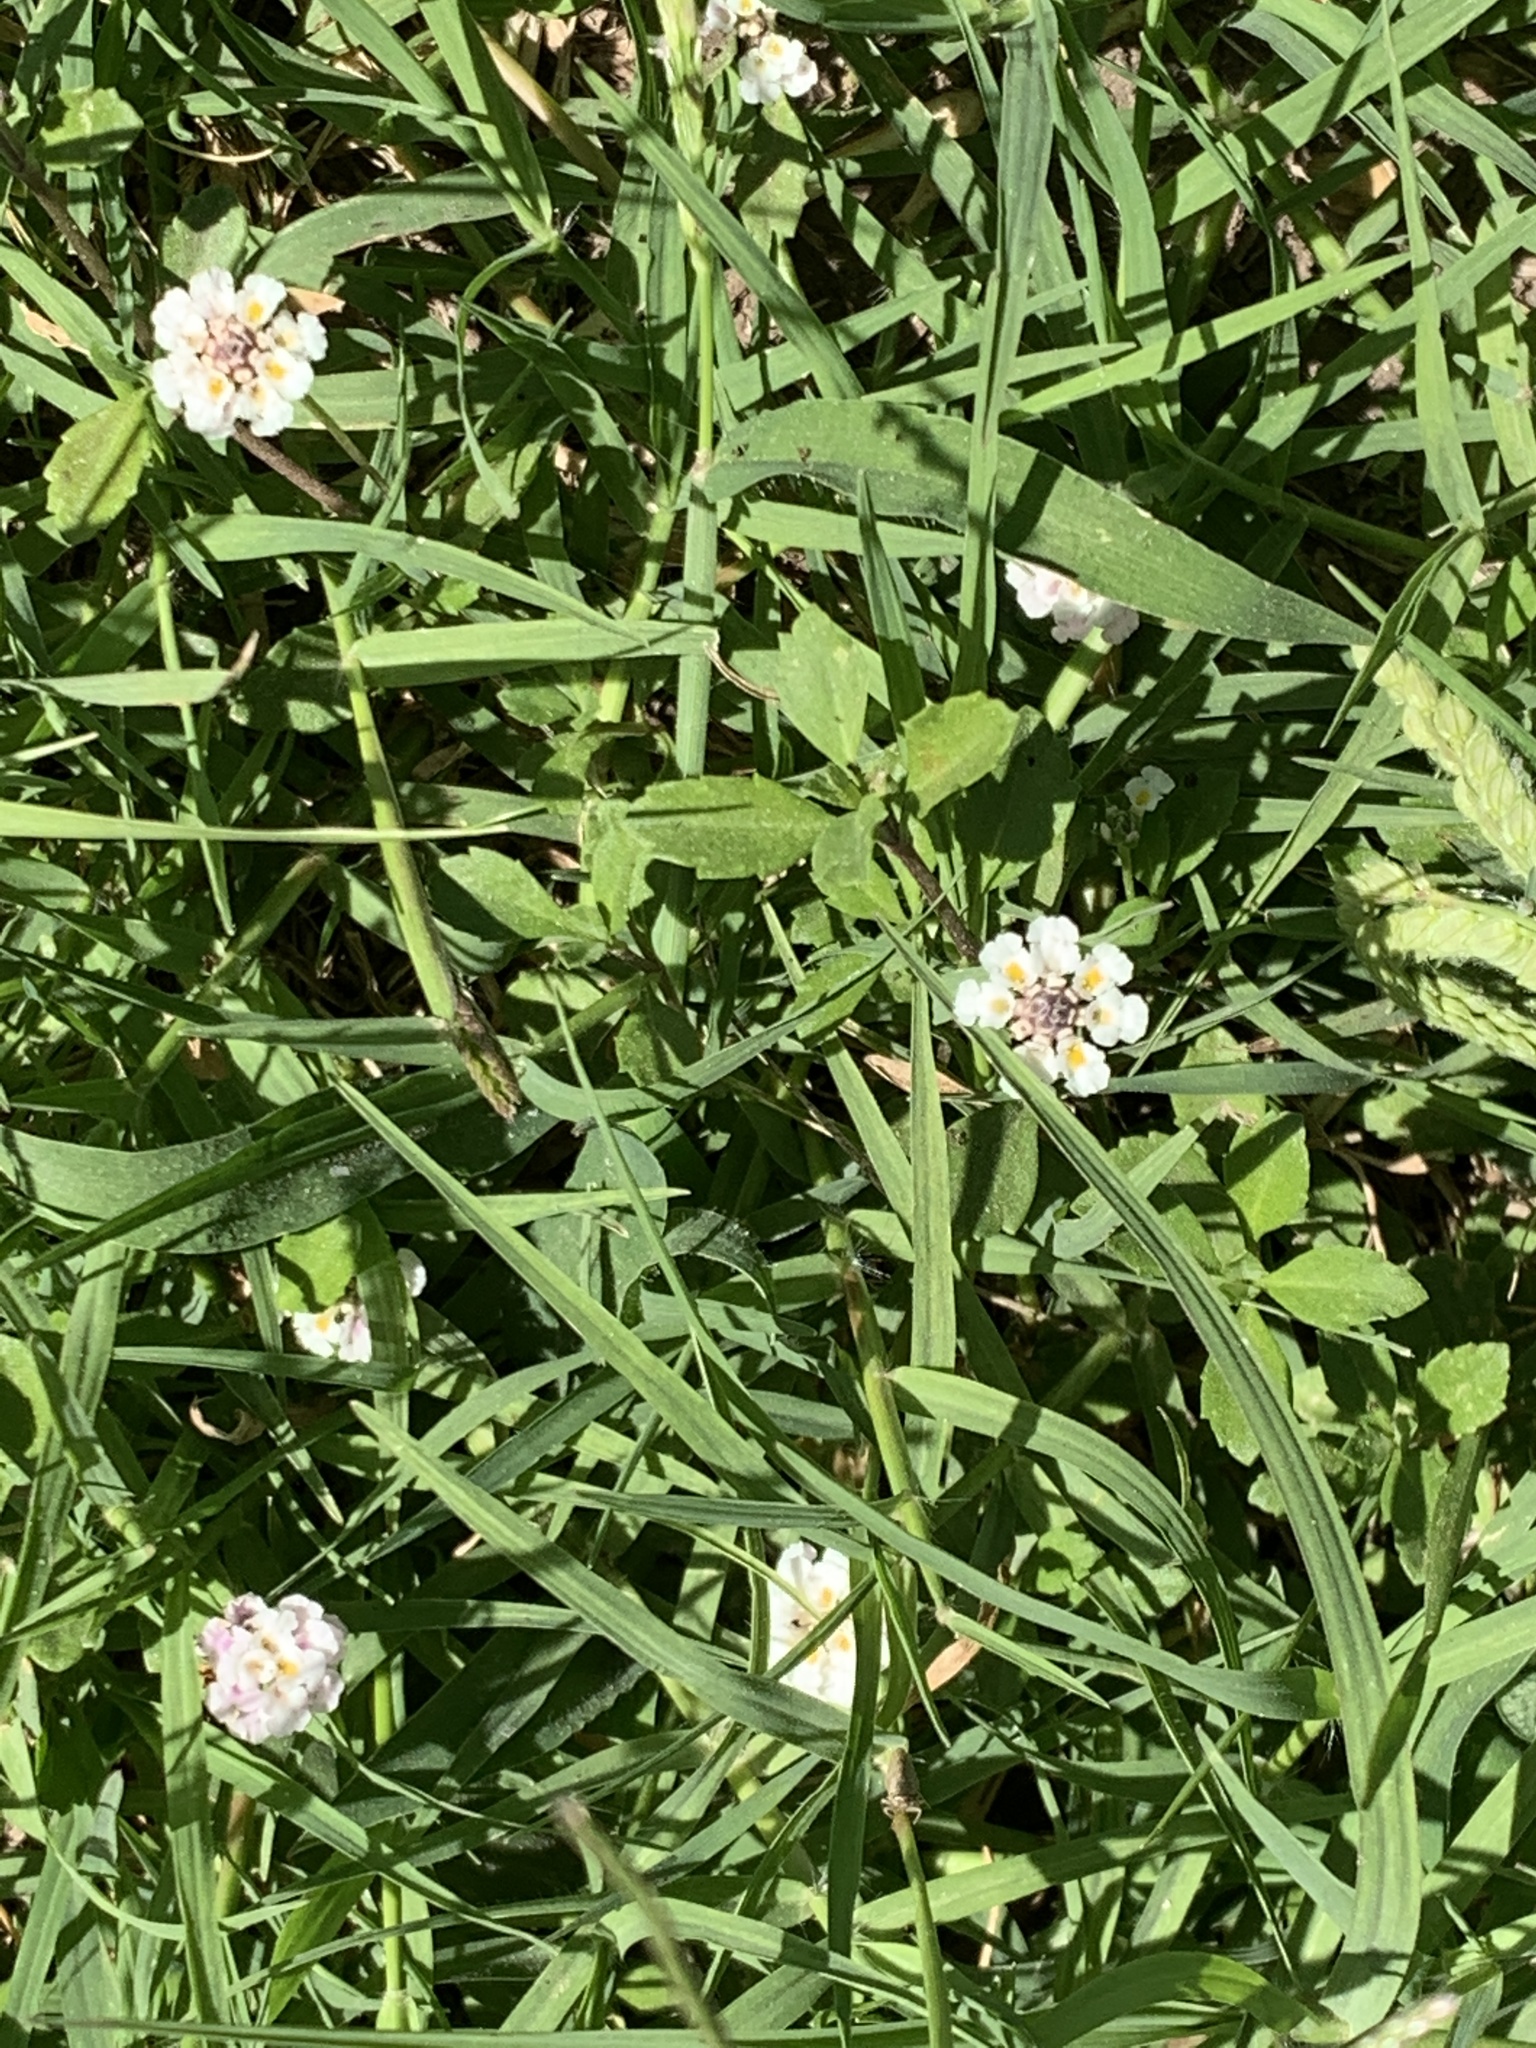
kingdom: Plantae
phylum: Tracheophyta
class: Magnoliopsida
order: Lamiales
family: Verbenaceae
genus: Phyla
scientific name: Phyla nodiflora
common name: Frogfruit
